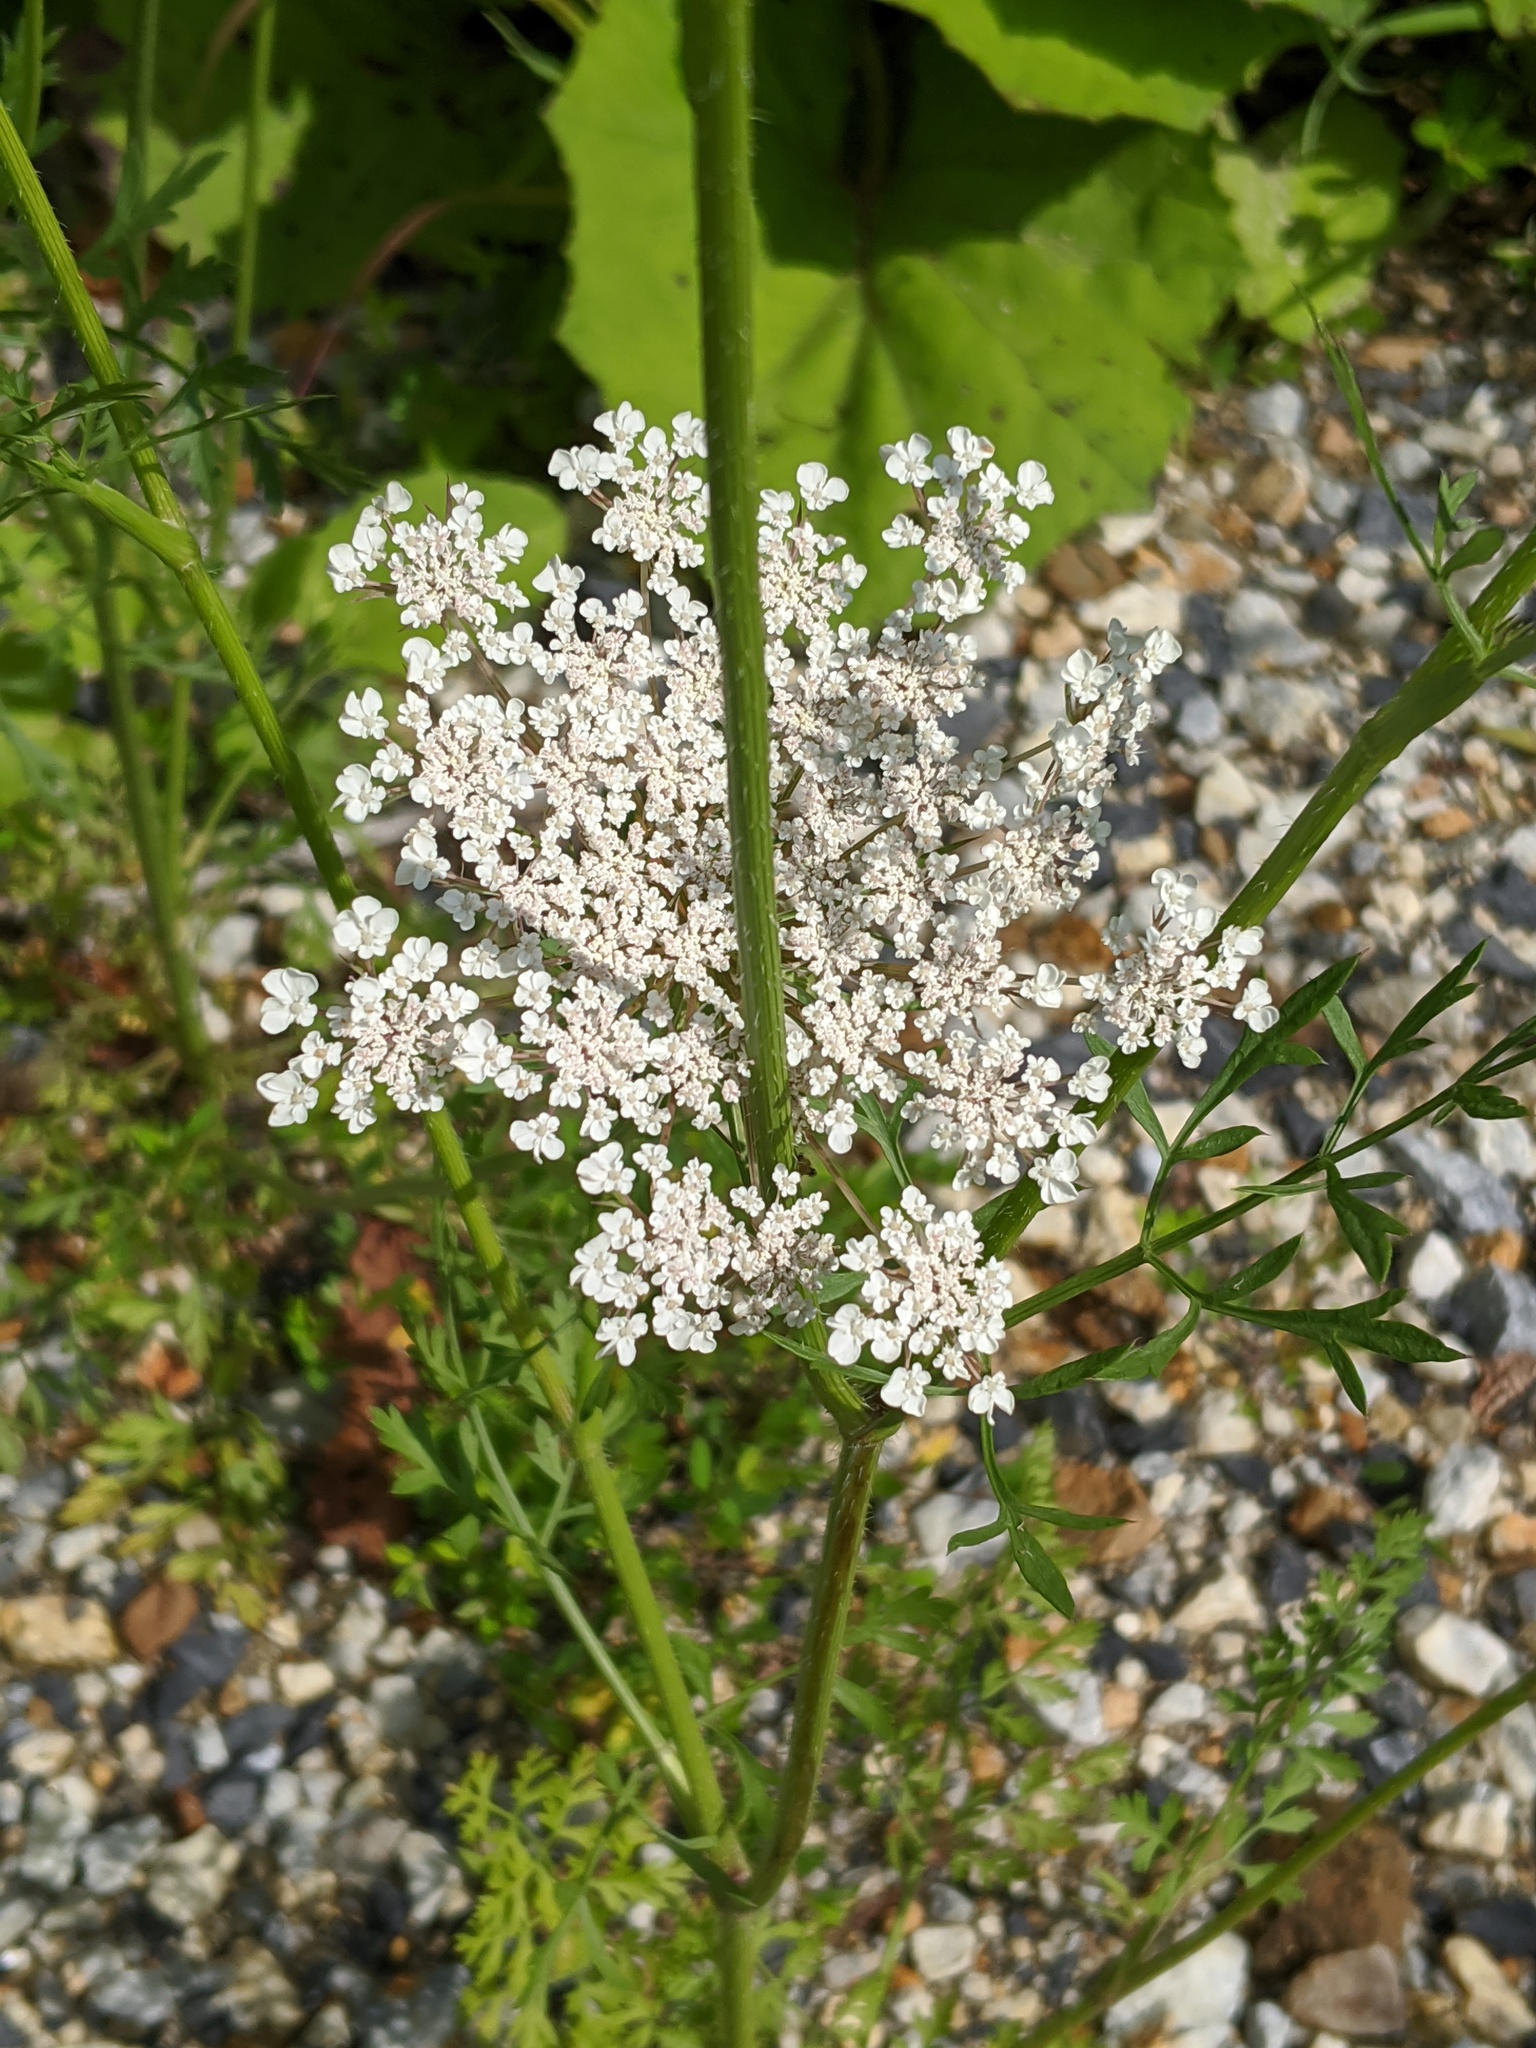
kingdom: Plantae
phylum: Tracheophyta
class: Magnoliopsida
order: Apiales
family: Apiaceae
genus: Daucus
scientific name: Daucus carota
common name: Wild carrot
